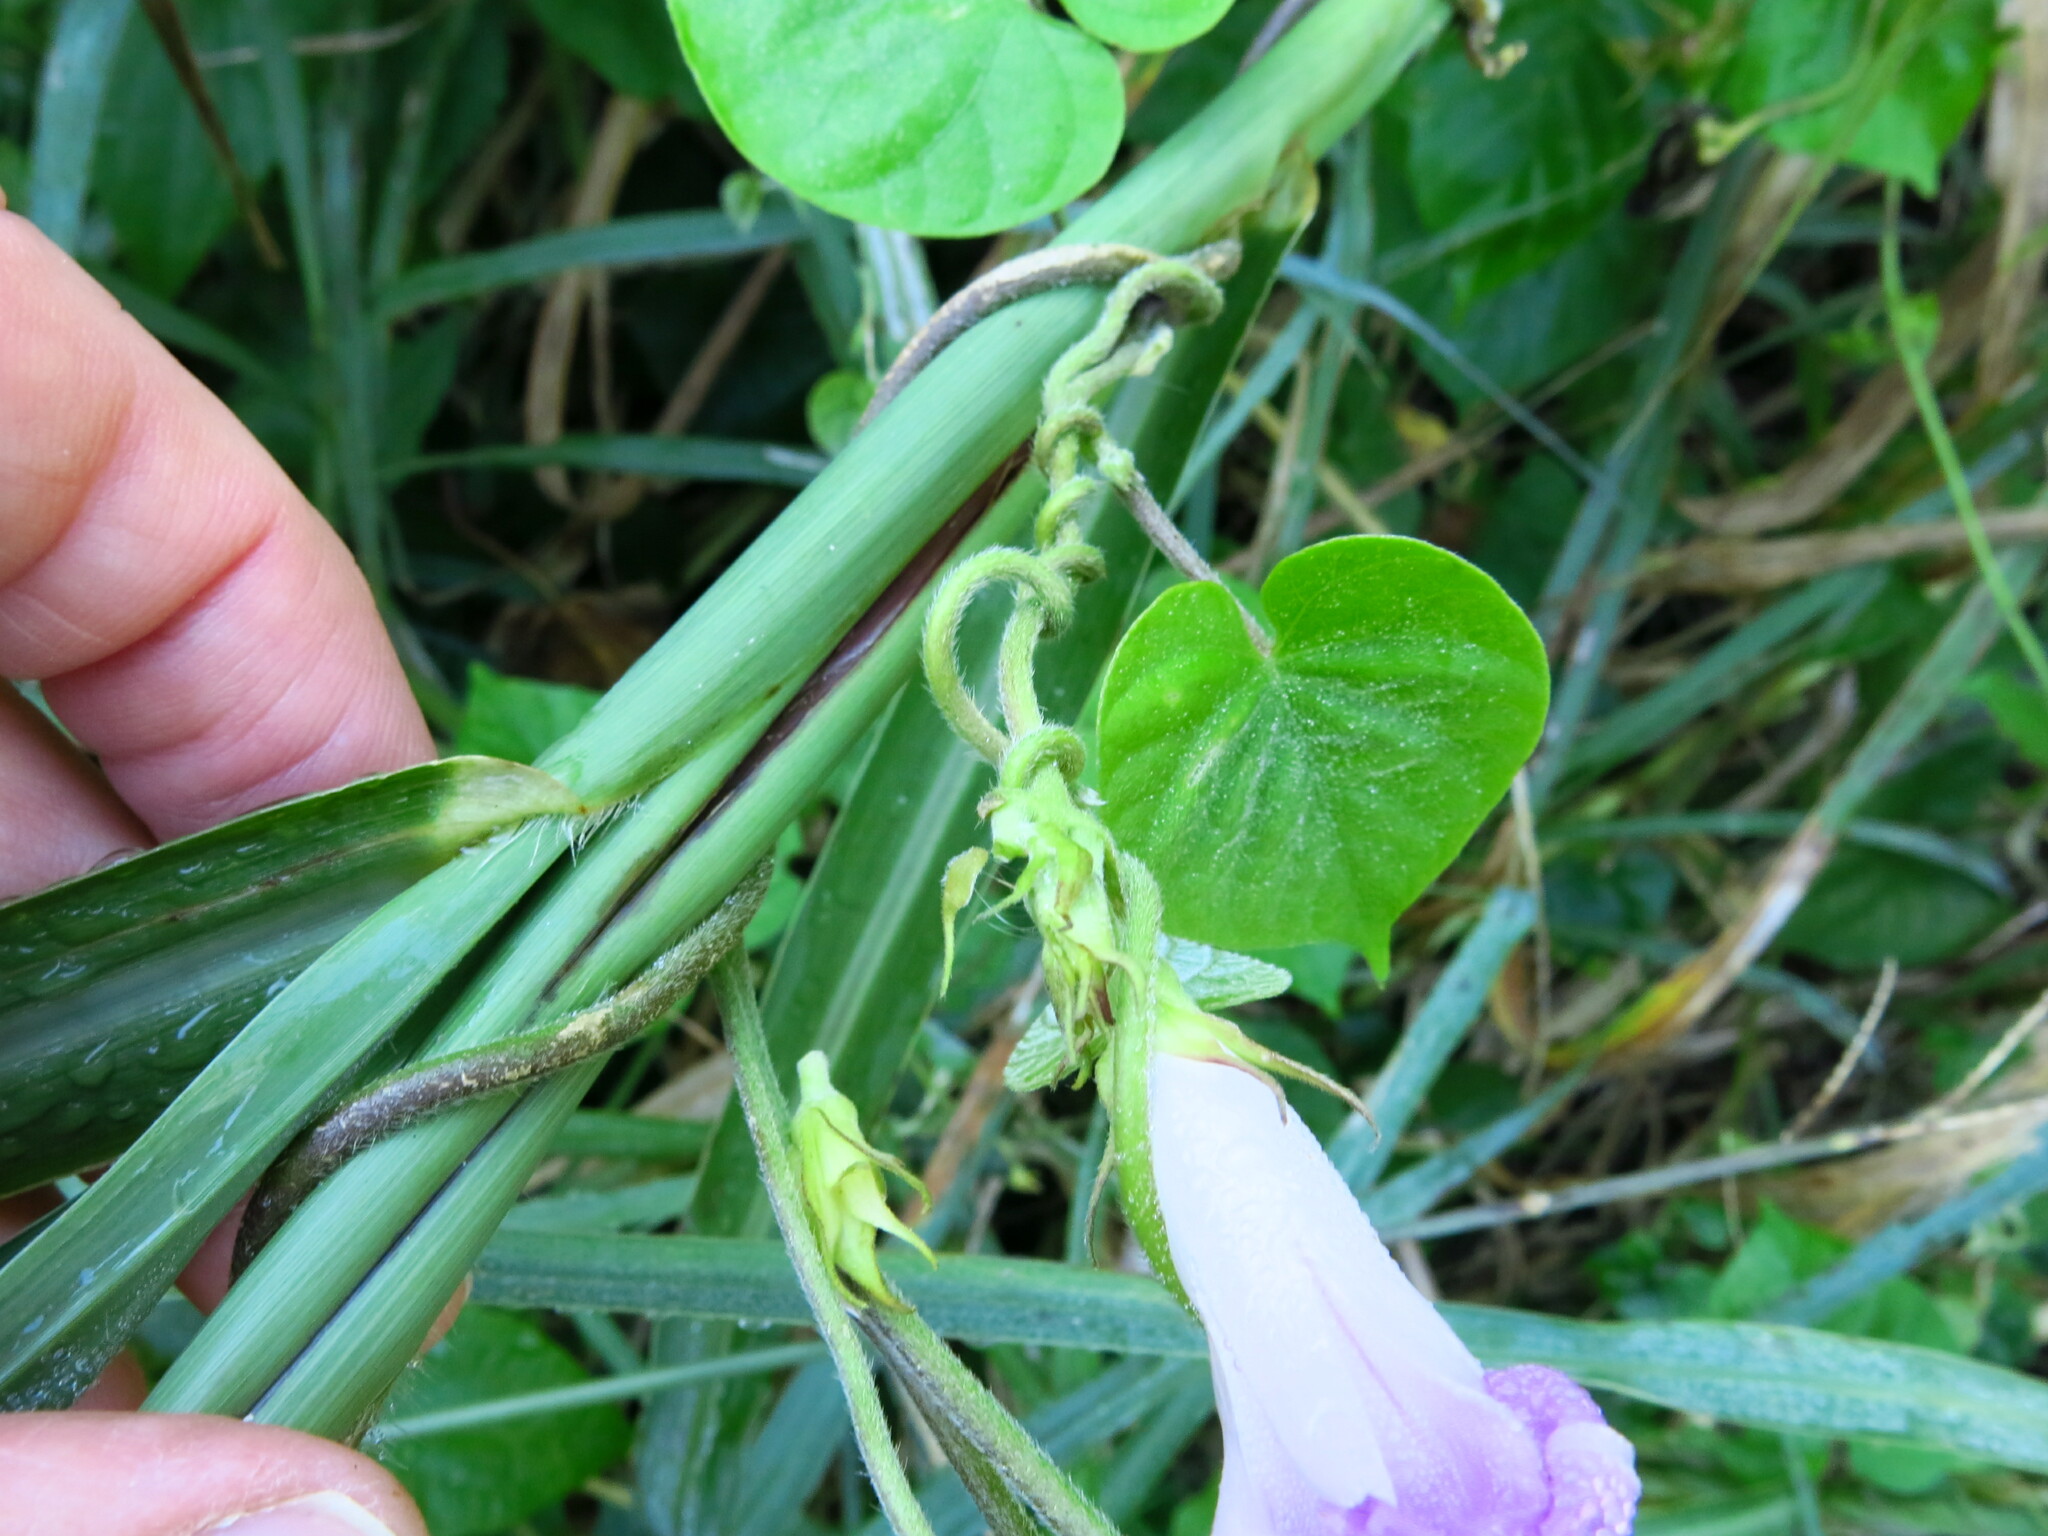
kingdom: Plantae
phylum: Tracheophyta
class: Magnoliopsida
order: Solanales
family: Convolvulaceae
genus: Ipomoea
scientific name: Ipomoea indica
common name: Blue dawnflower
